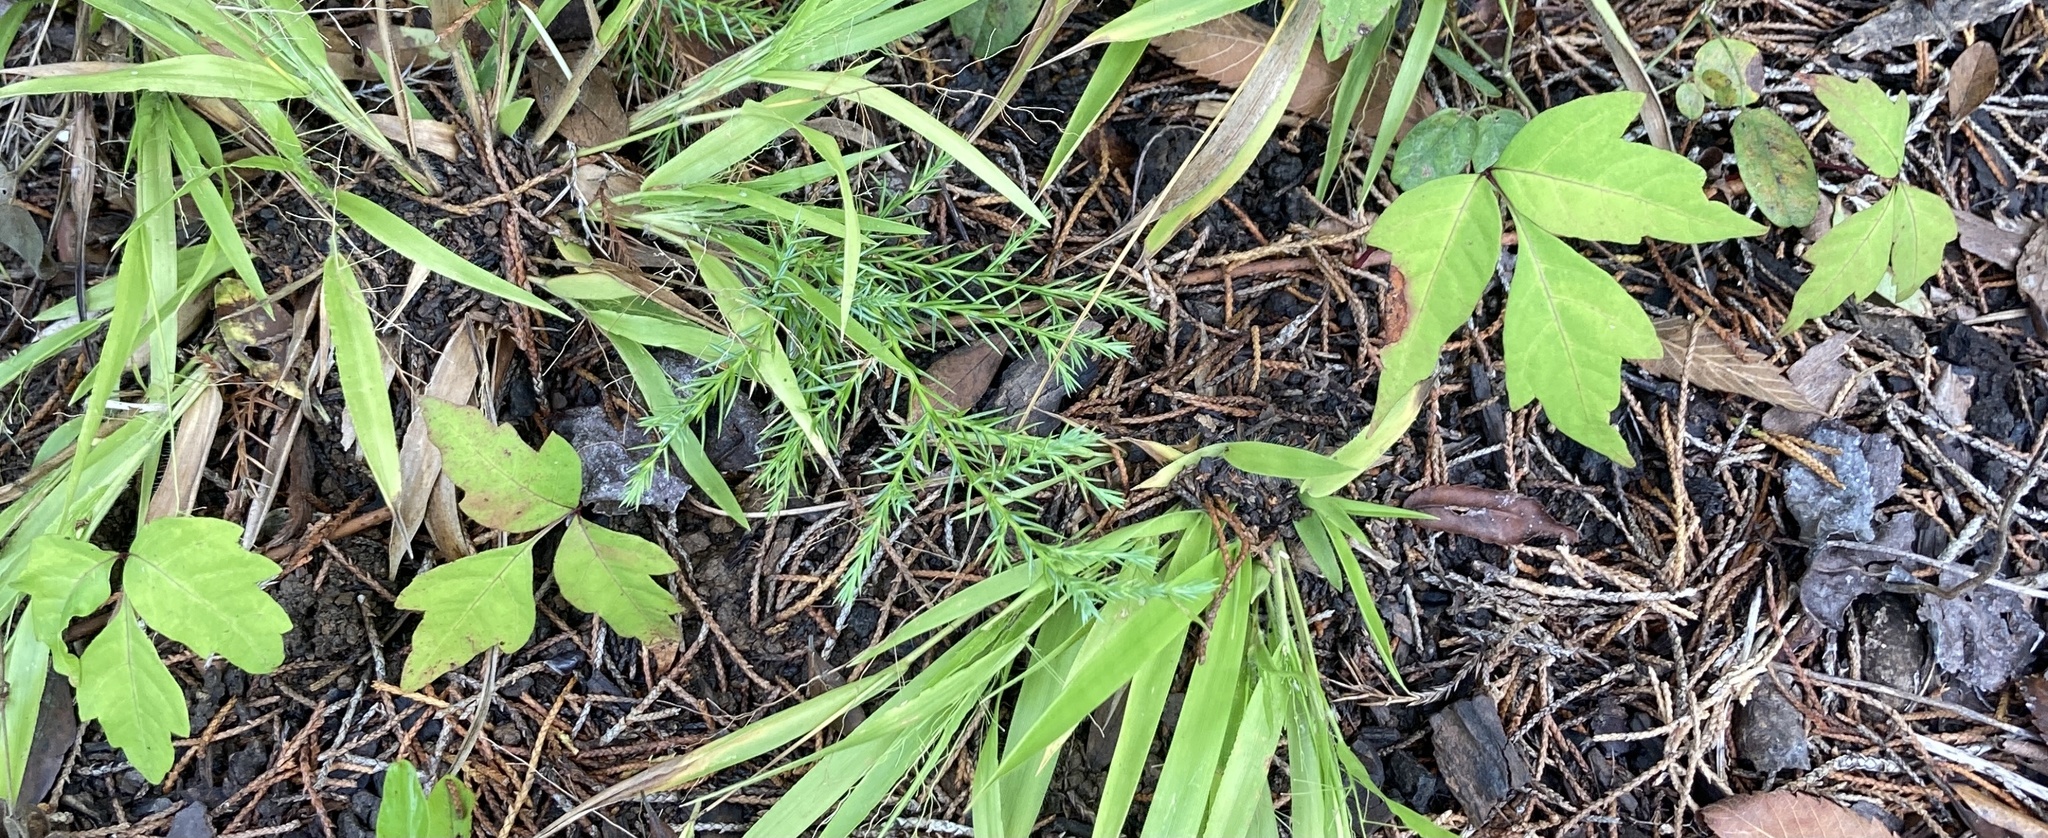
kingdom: Plantae
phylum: Tracheophyta
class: Magnoliopsida
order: Sapindales
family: Anacardiaceae
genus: Toxicodendron
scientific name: Toxicodendron radicans
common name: Poison ivy
